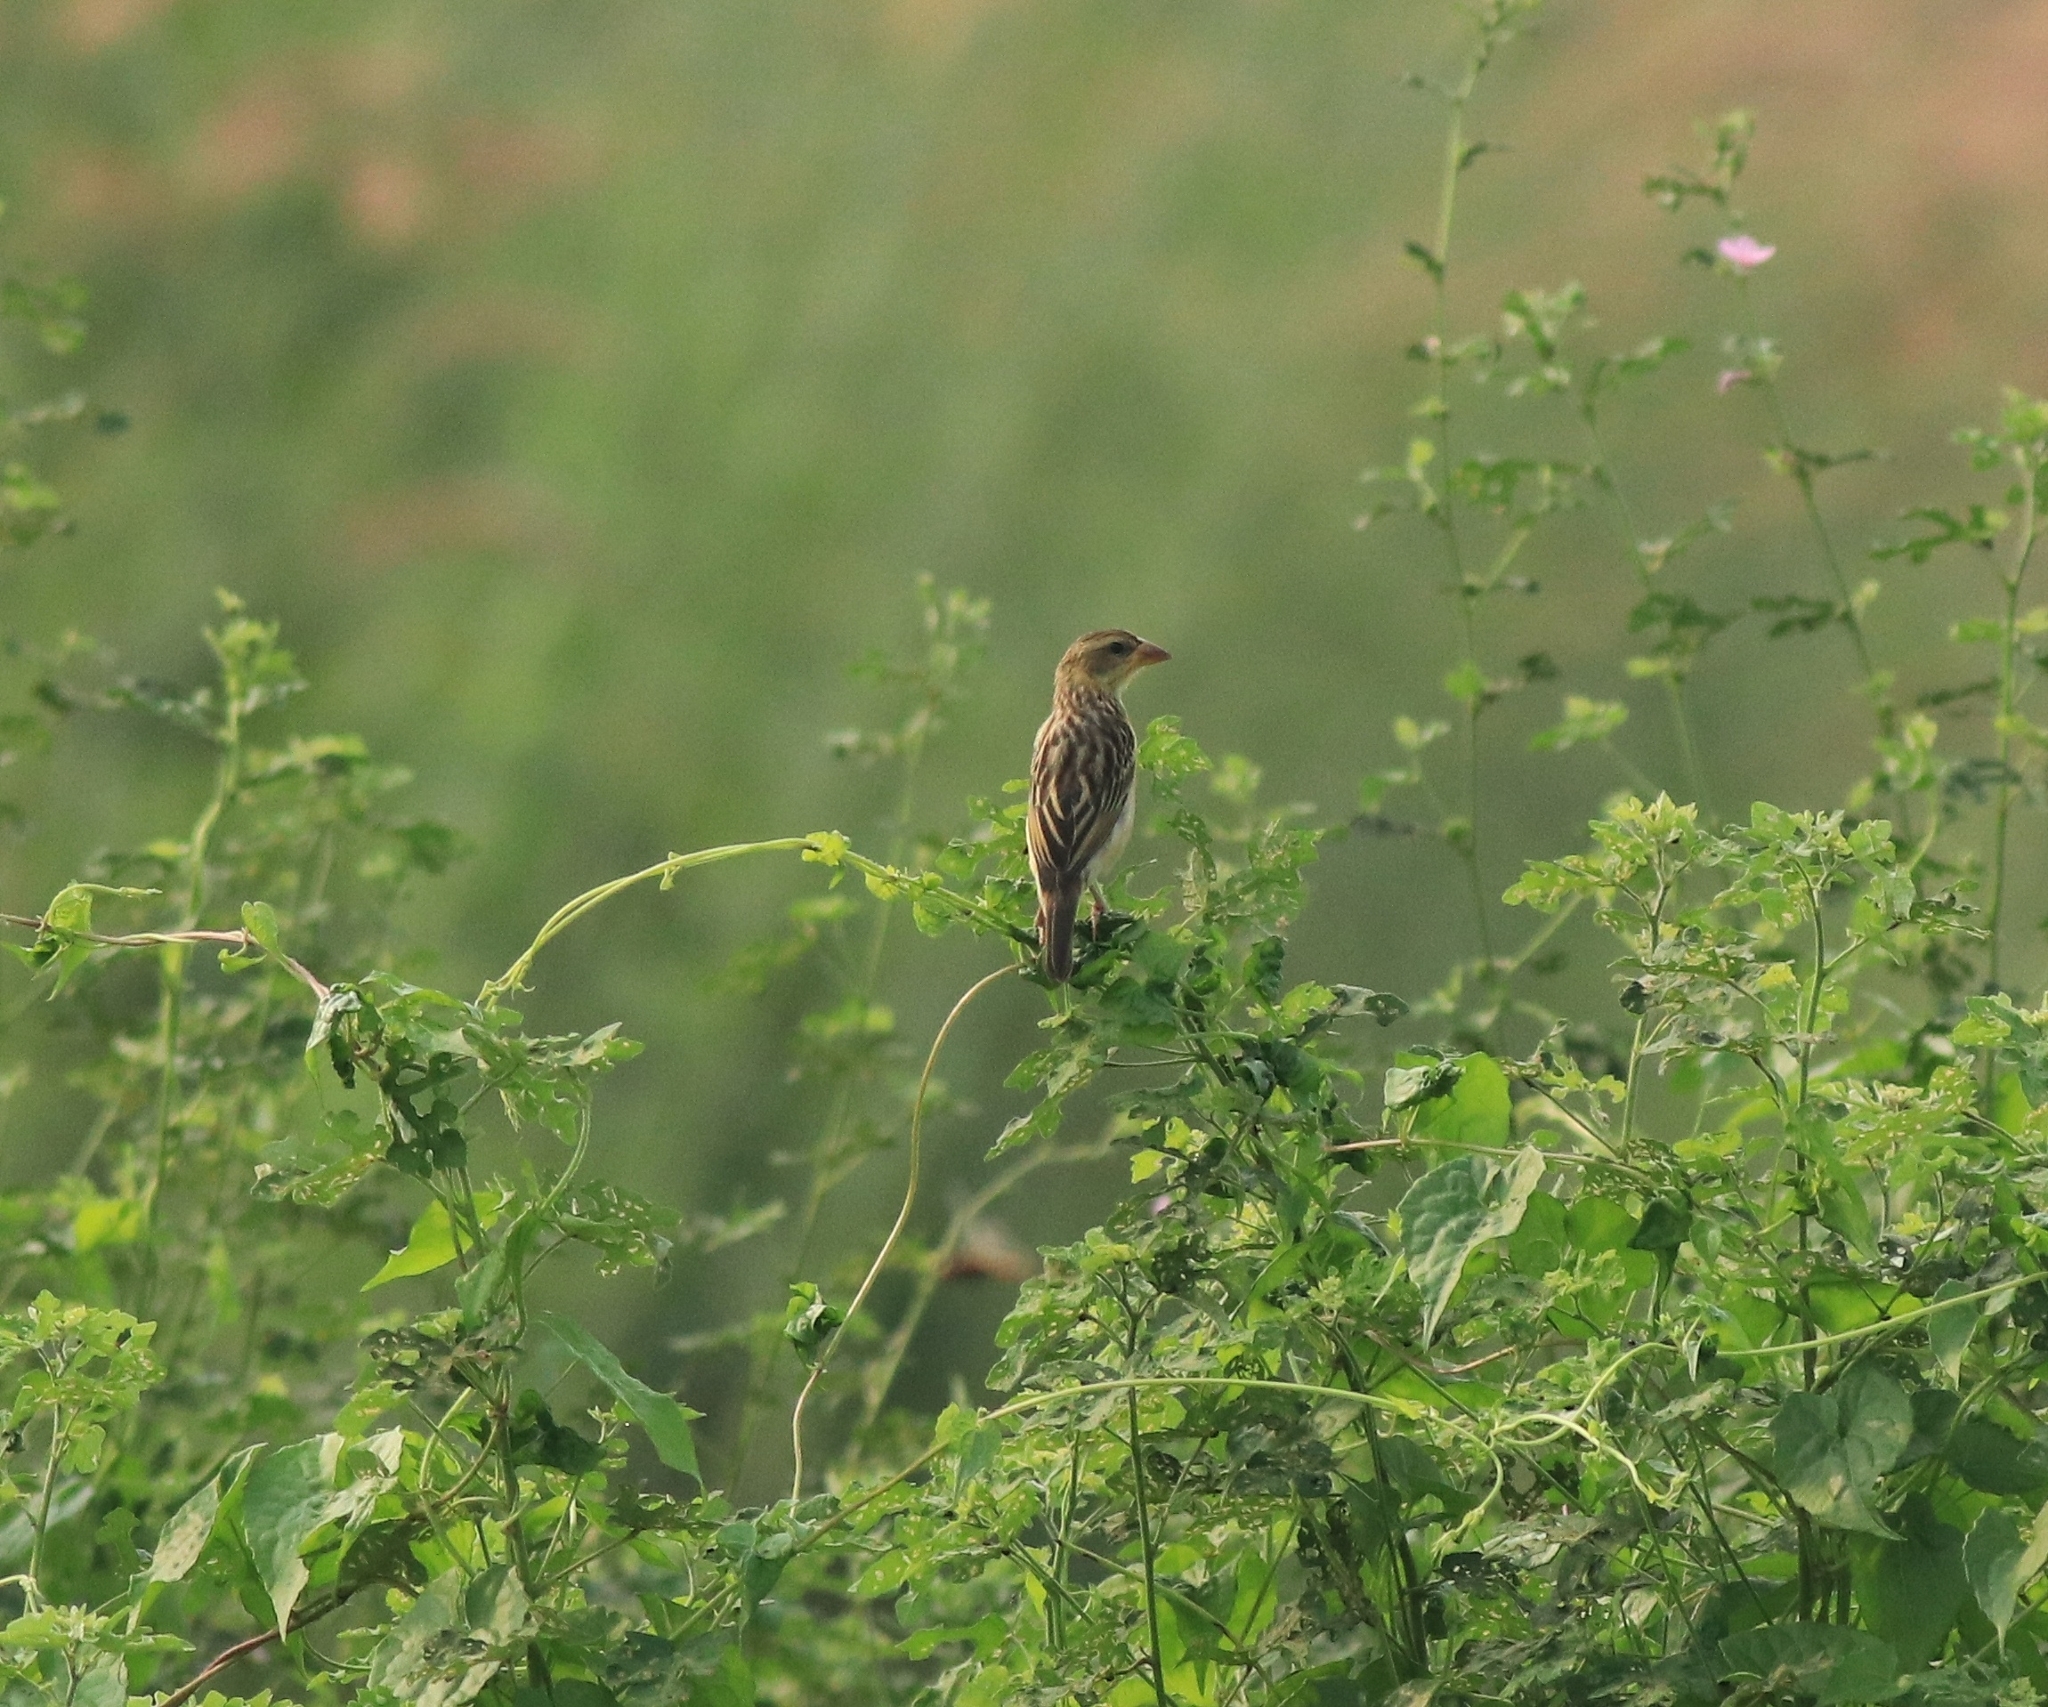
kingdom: Animalia
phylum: Chordata
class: Aves
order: Passeriformes
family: Ploceidae
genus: Ploceus
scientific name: Ploceus philippinus
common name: Baya weaver
